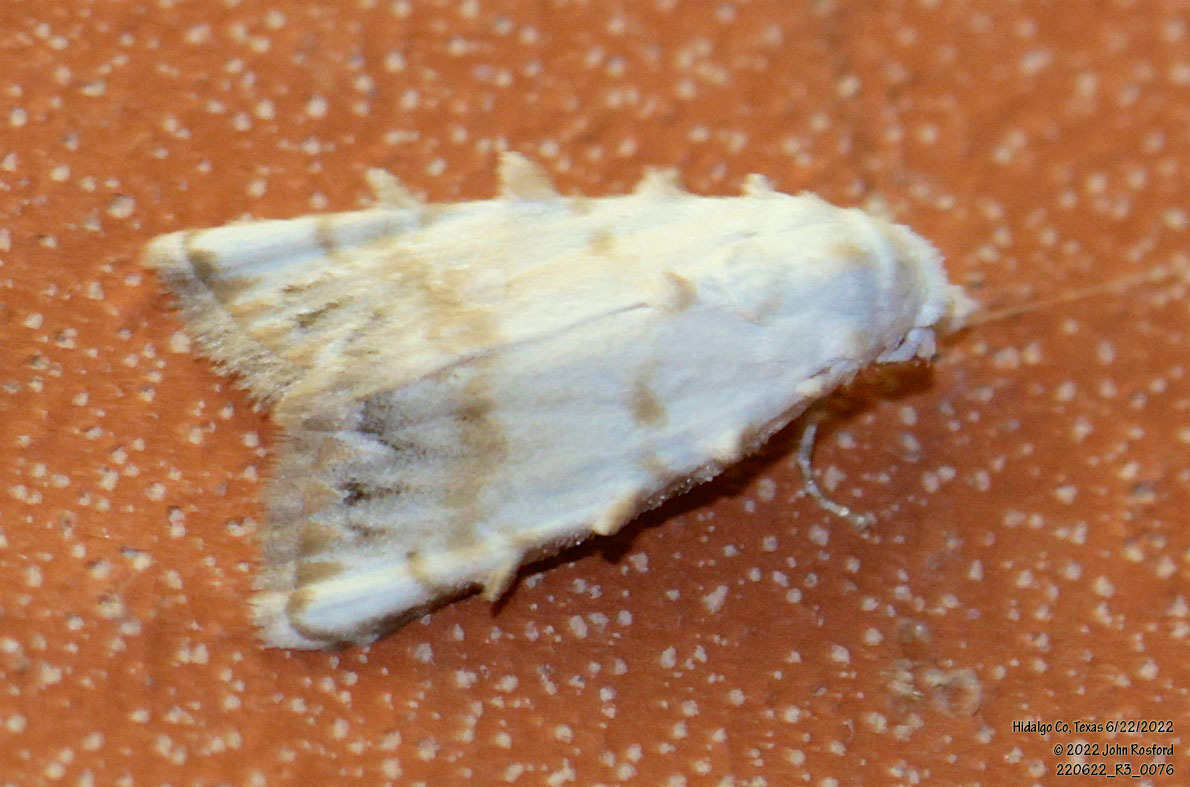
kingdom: Animalia
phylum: Arthropoda
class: Insecta
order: Lepidoptera
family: Nolidae
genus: Nola
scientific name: Nola cereella
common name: Sorghum webworm moth
